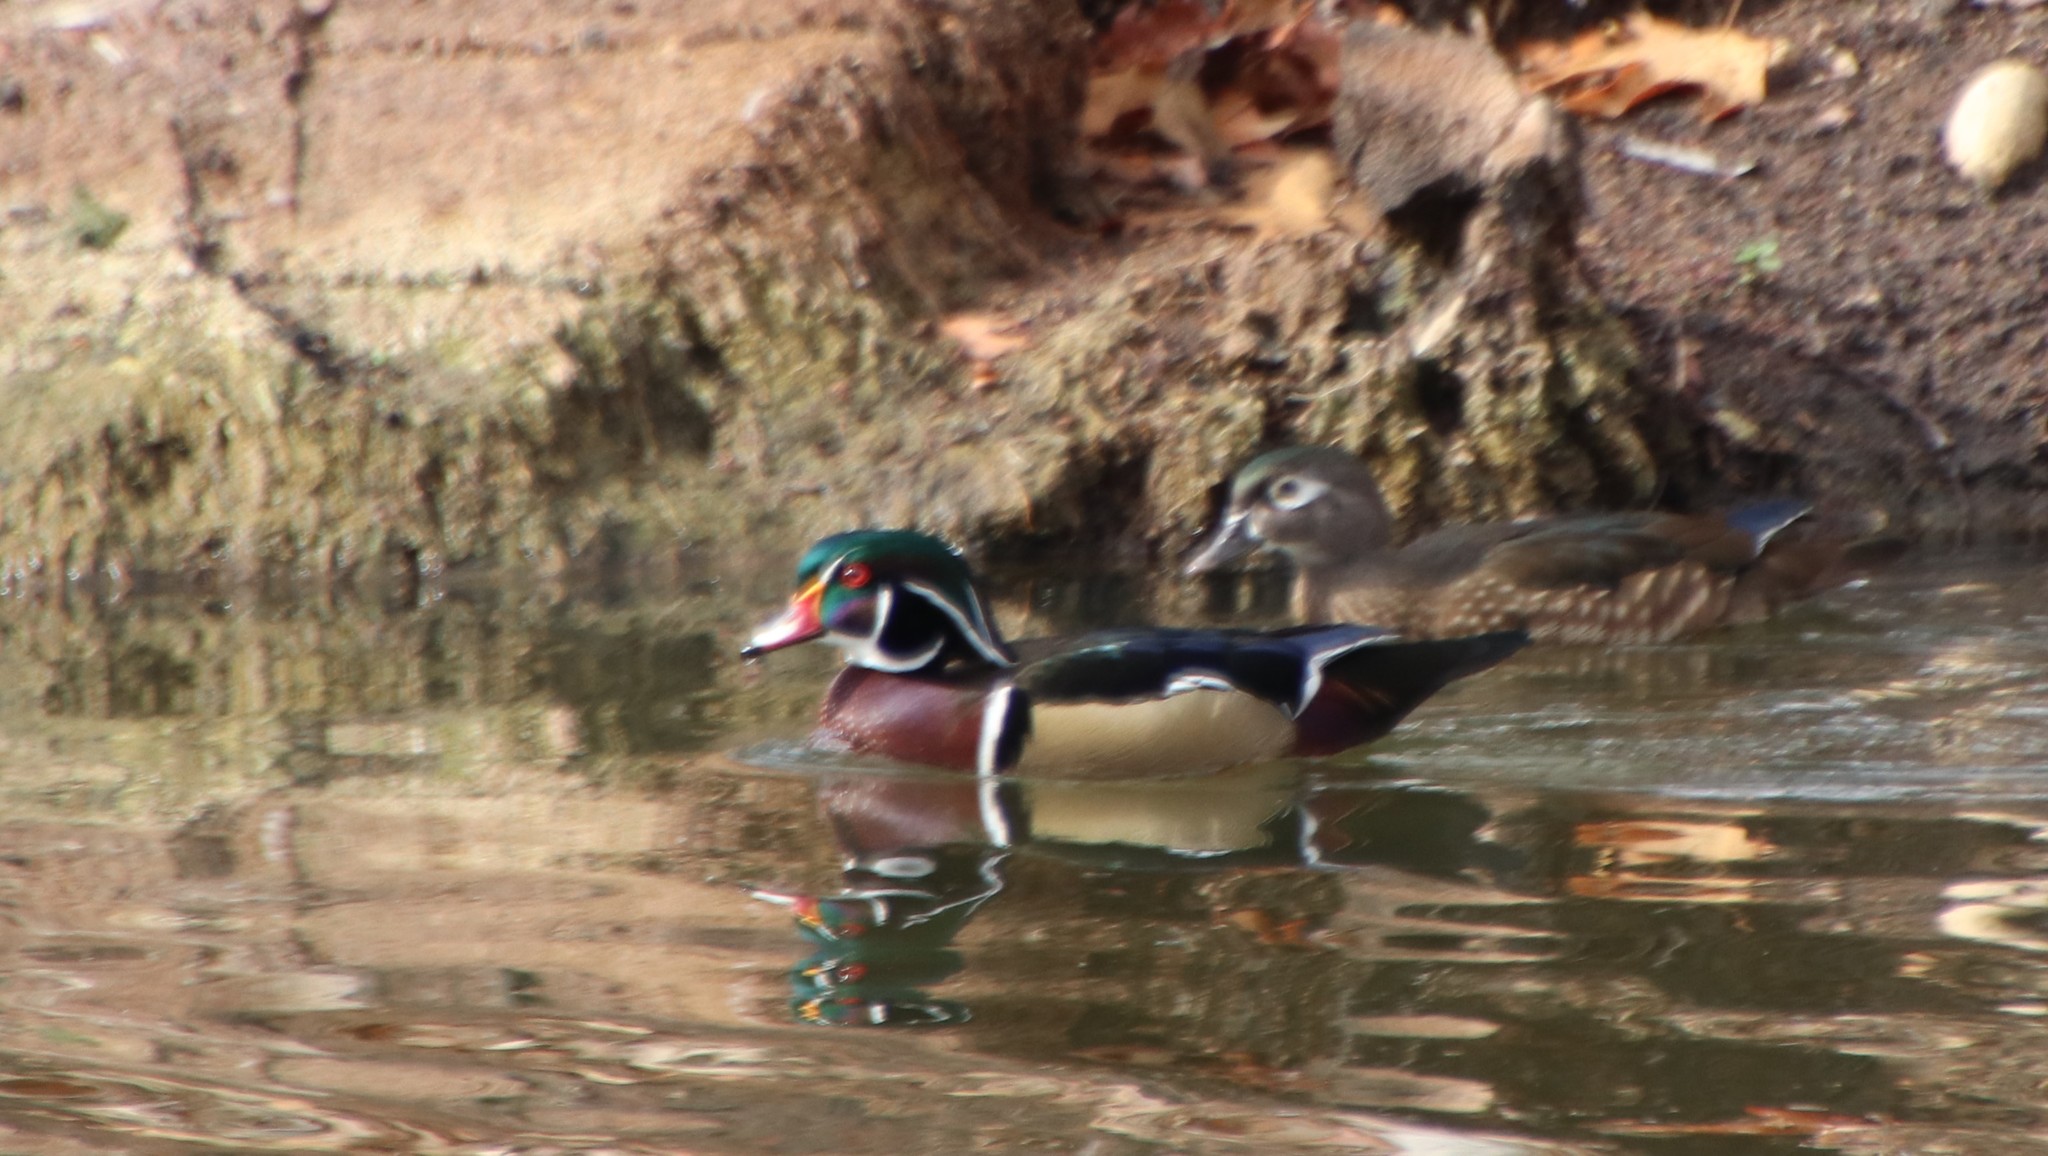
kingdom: Animalia
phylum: Chordata
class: Aves
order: Anseriformes
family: Anatidae
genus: Aix
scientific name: Aix sponsa
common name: Wood duck
